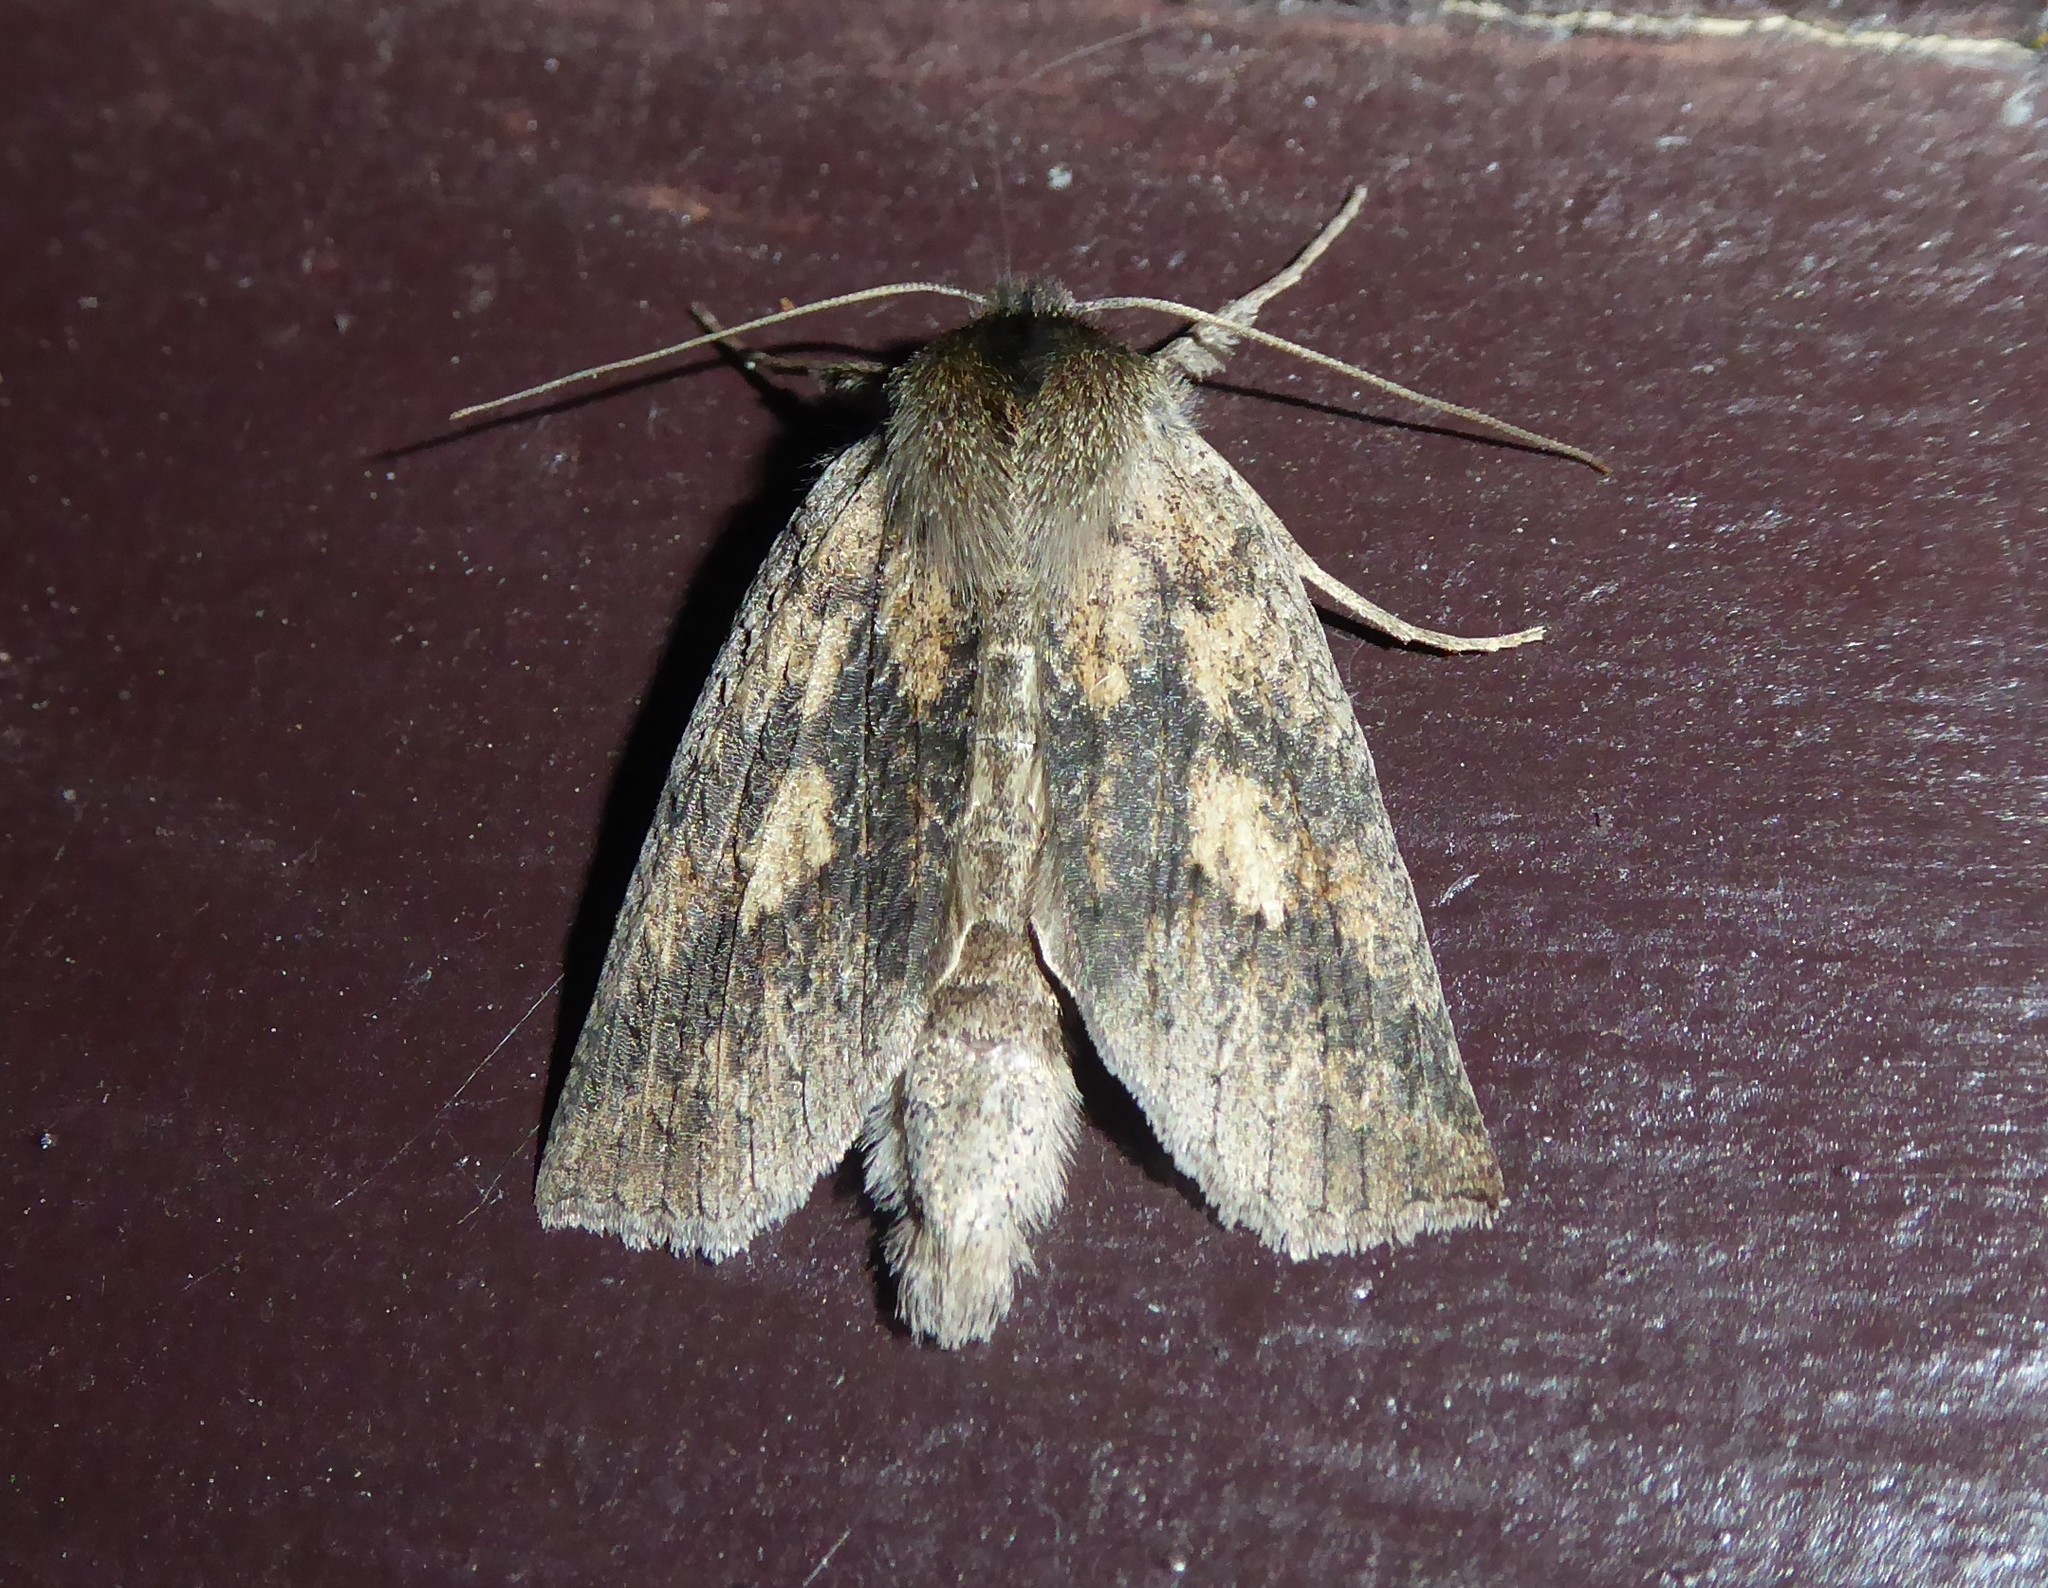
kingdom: Animalia
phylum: Arthropoda
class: Insecta
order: Lepidoptera
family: Geometridae
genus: Declana
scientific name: Declana leptomera
